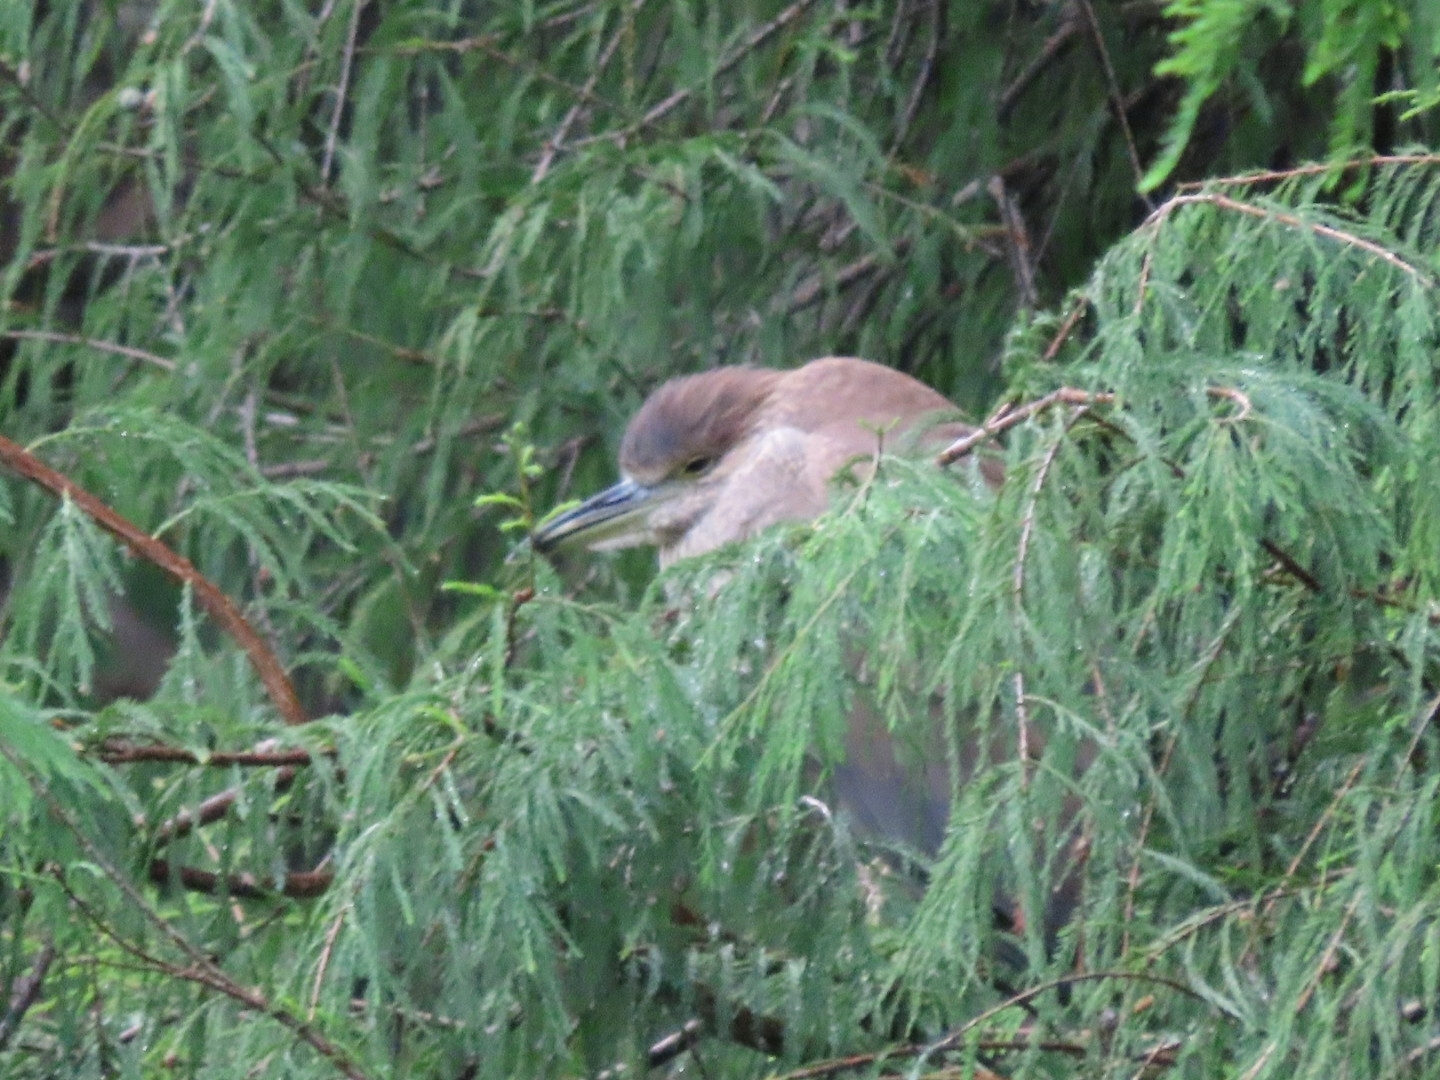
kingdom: Animalia
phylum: Chordata
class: Aves
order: Pelecaniformes
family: Ardeidae
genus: Nycticorax
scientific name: Nycticorax nycticorax
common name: Black-crowned night heron
